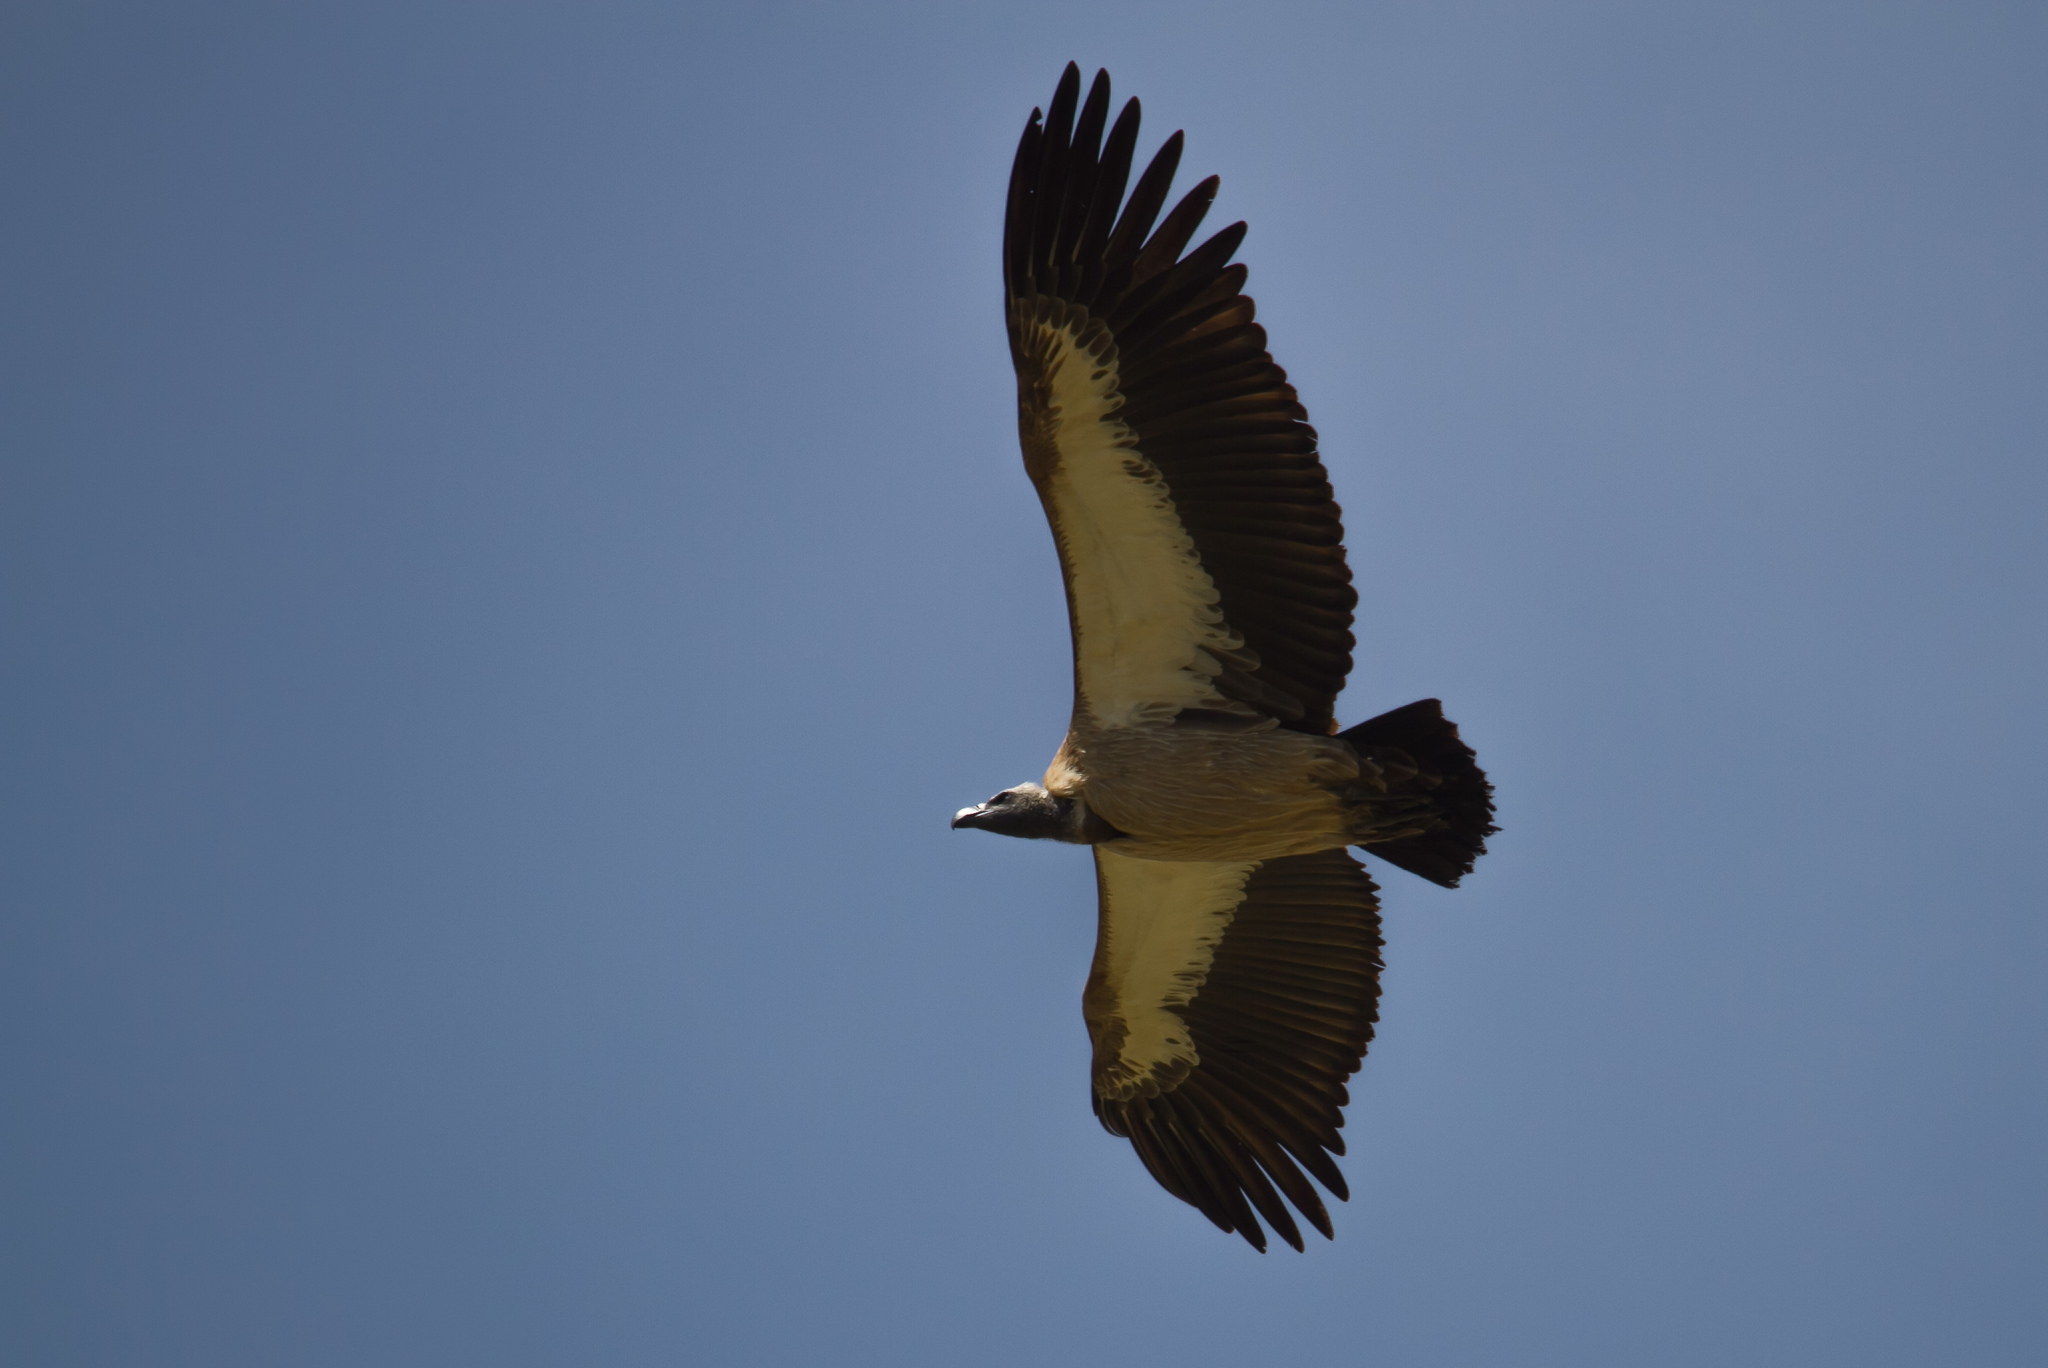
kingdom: Animalia
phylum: Chordata
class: Aves
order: Accipitriformes
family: Accipitridae
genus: Gyps
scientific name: Gyps africanus
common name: White-backed vulture
